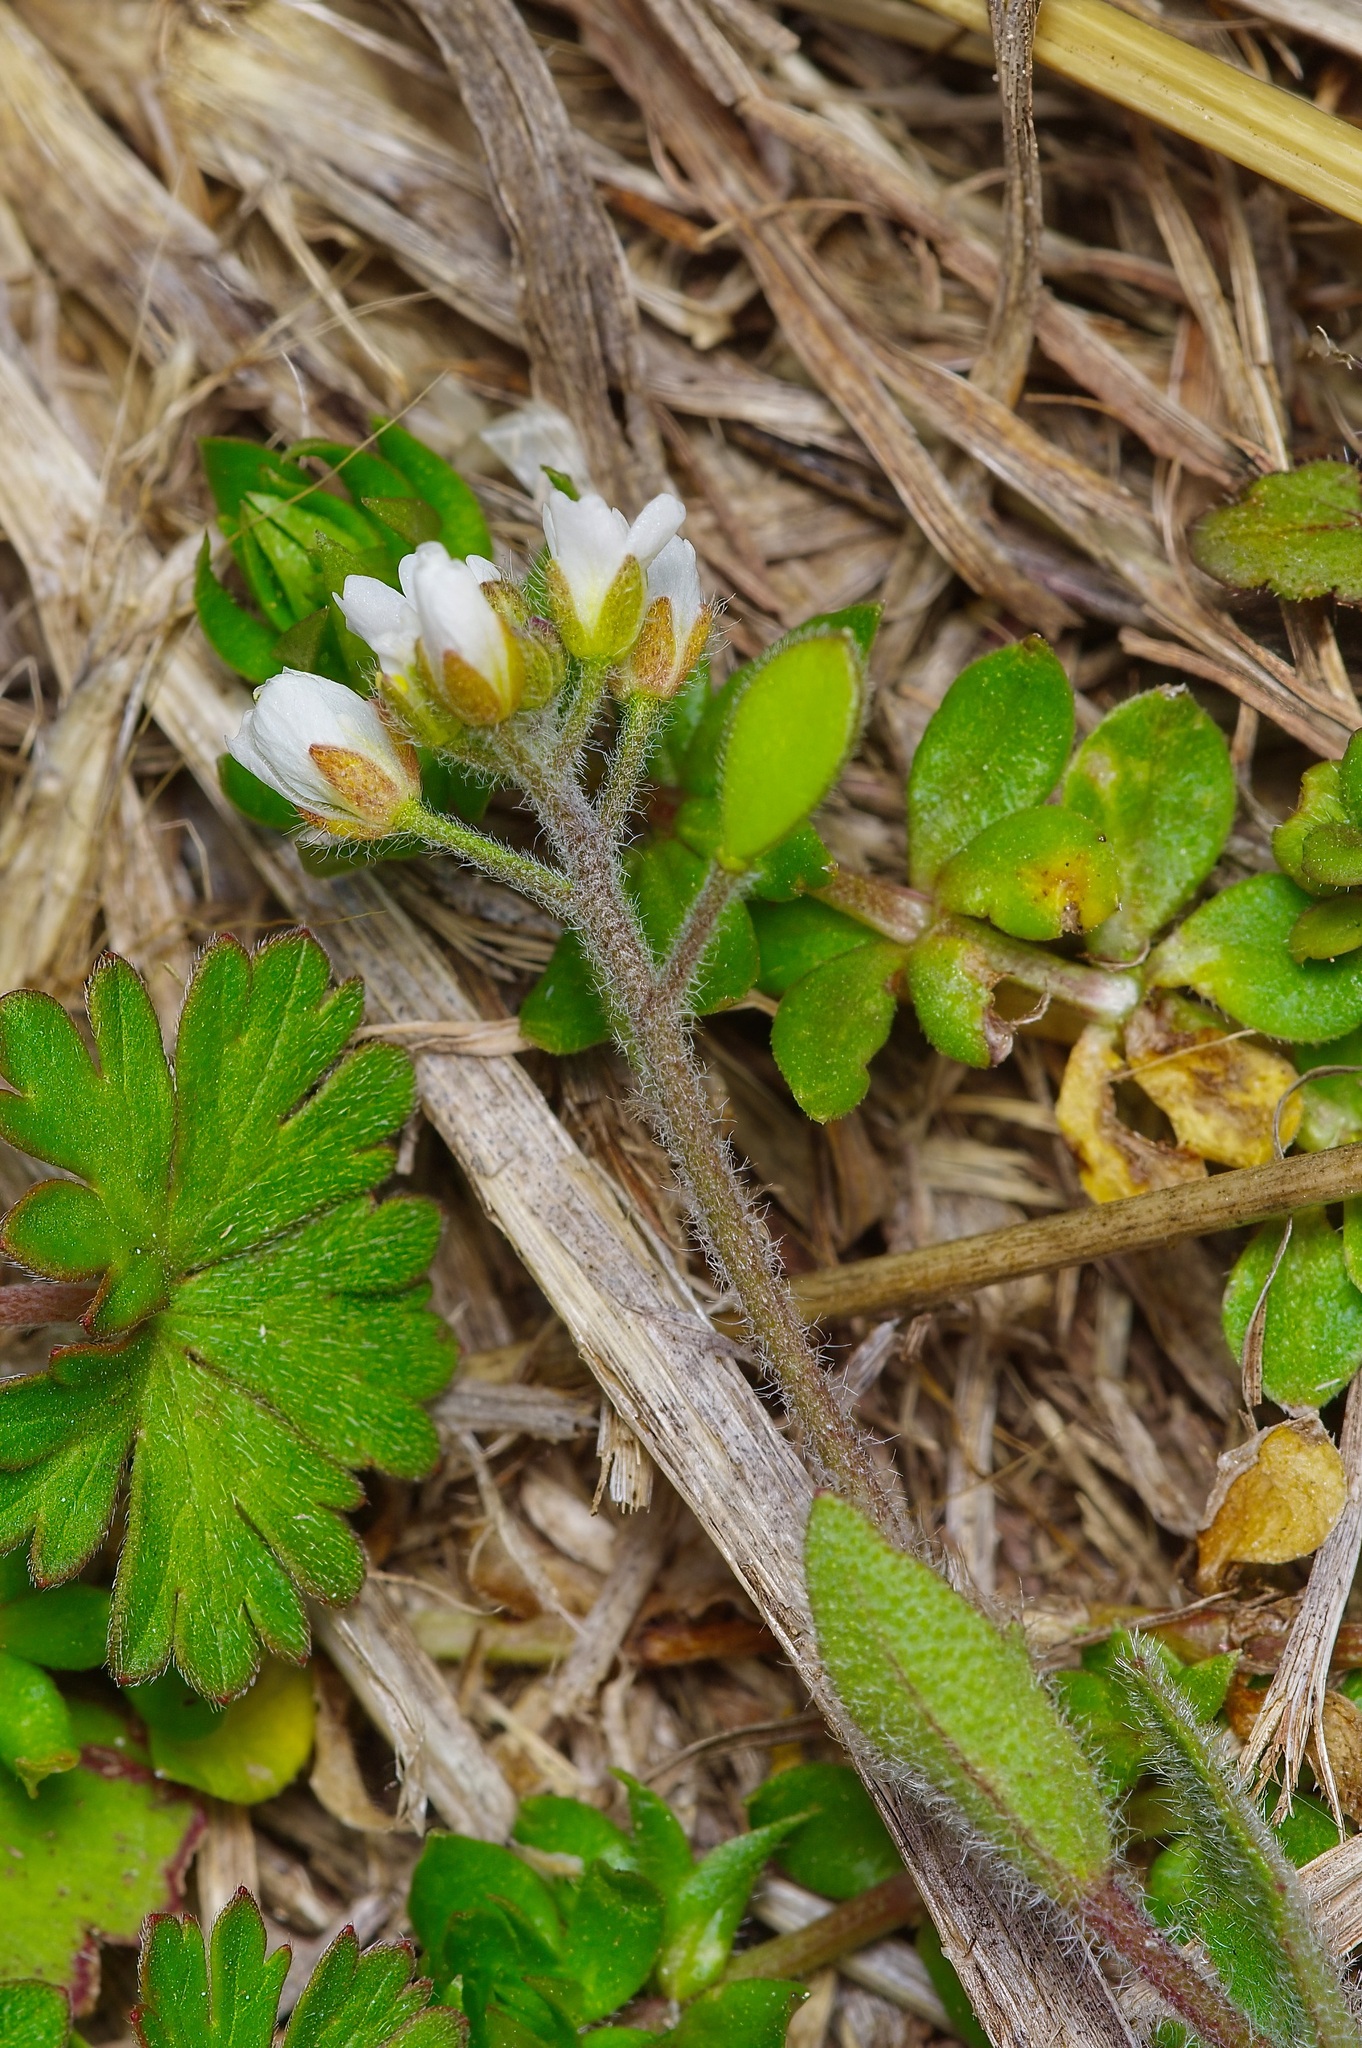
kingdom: Plantae
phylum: Tracheophyta
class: Magnoliopsida
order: Brassicales
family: Brassicaceae
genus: Tomostima
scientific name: Tomostima platycarpa
